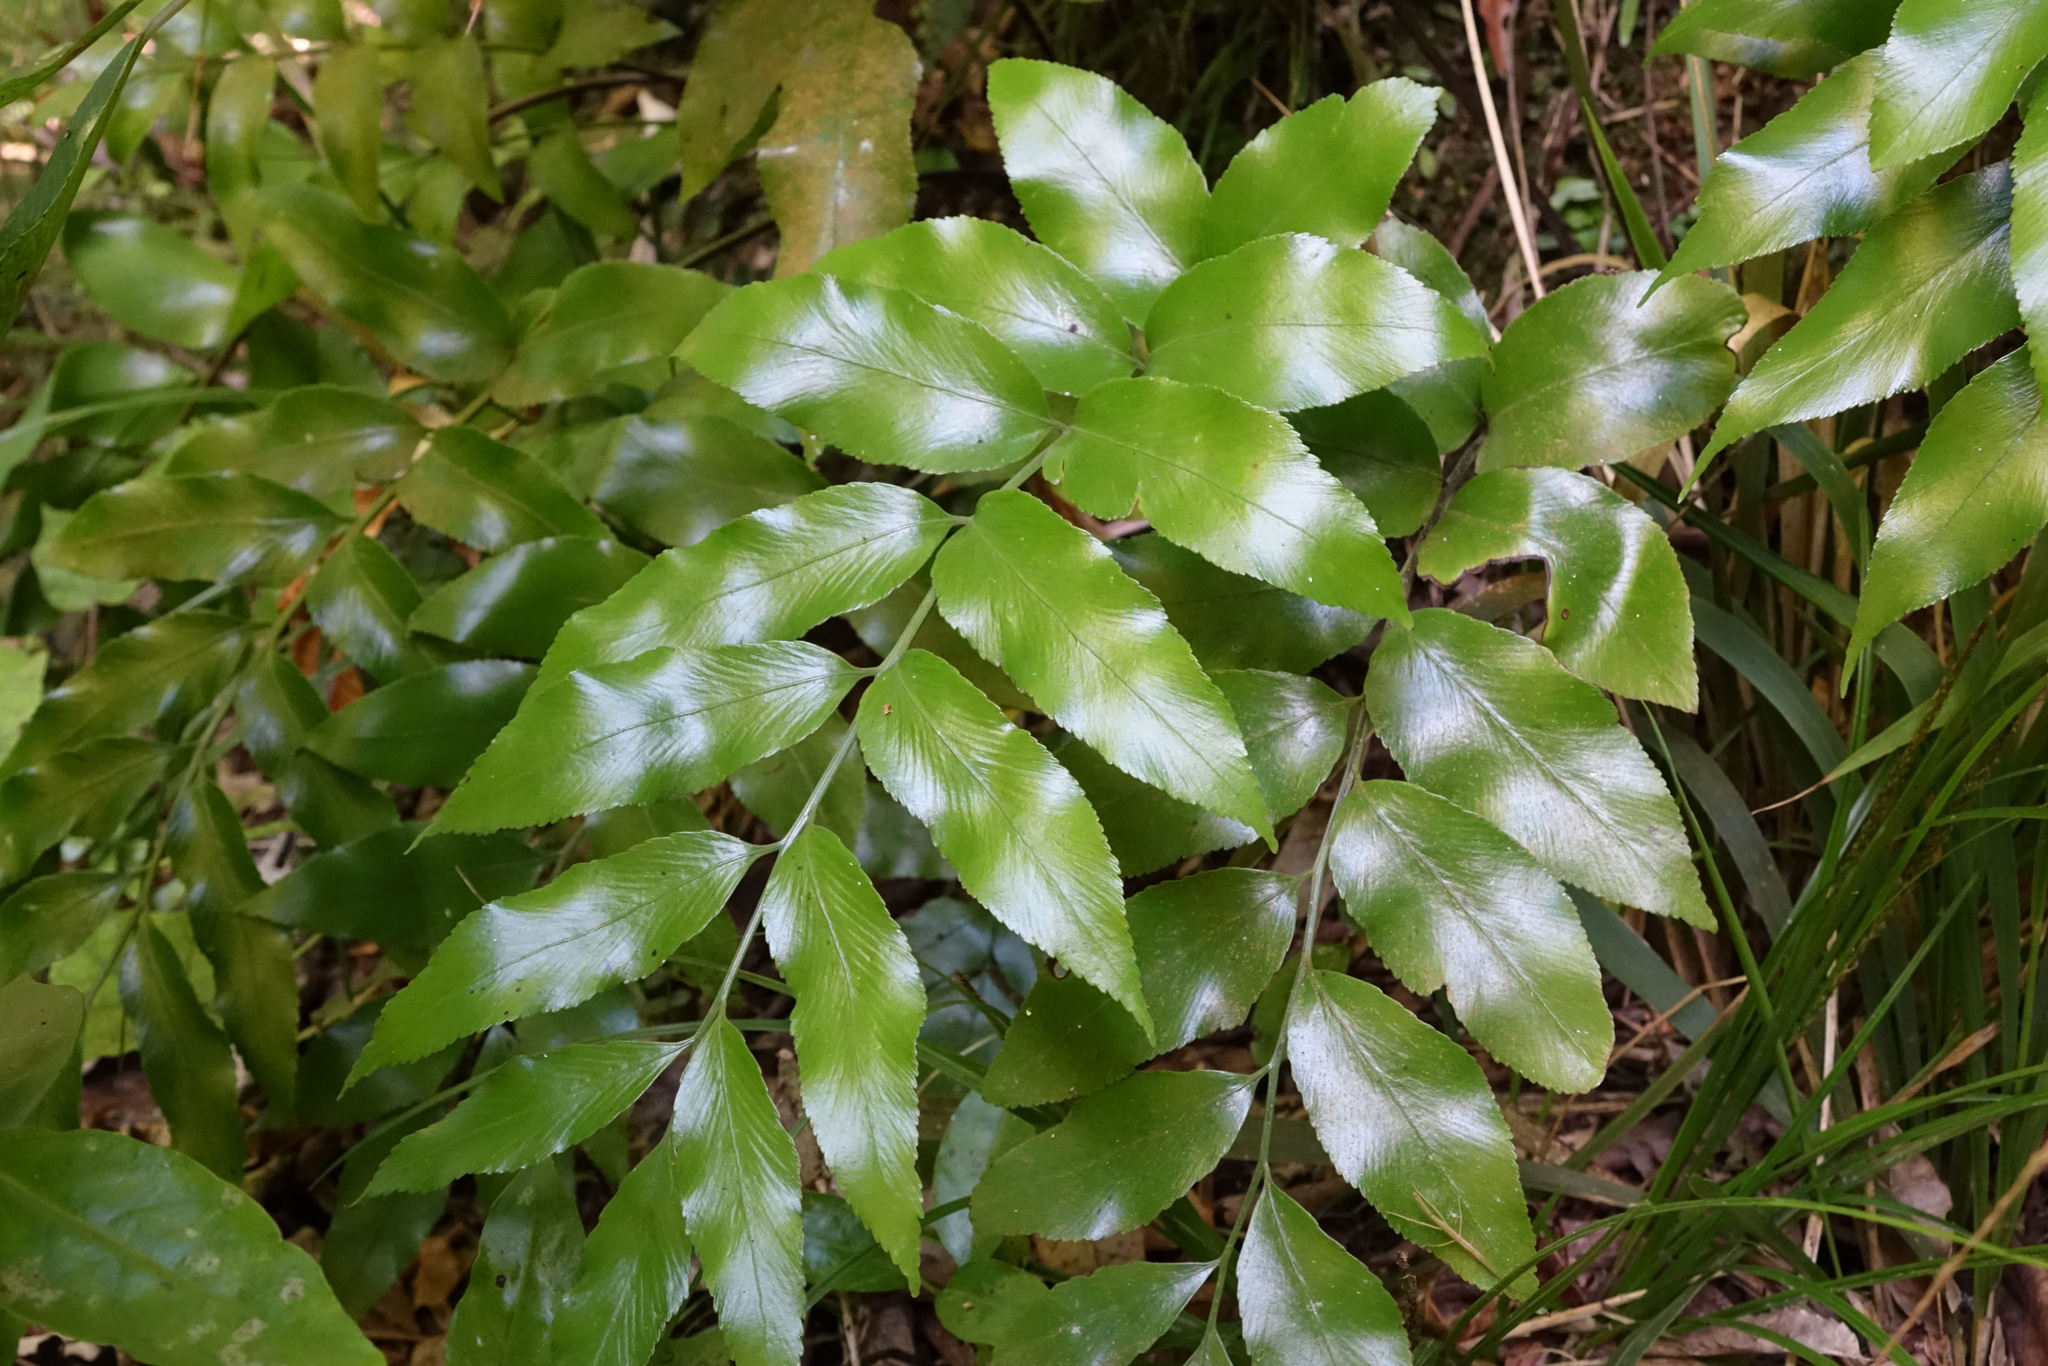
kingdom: Plantae
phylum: Tracheophyta
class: Polypodiopsida
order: Polypodiales
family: Aspleniaceae
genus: Asplenium
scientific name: Asplenium oblongifolium
